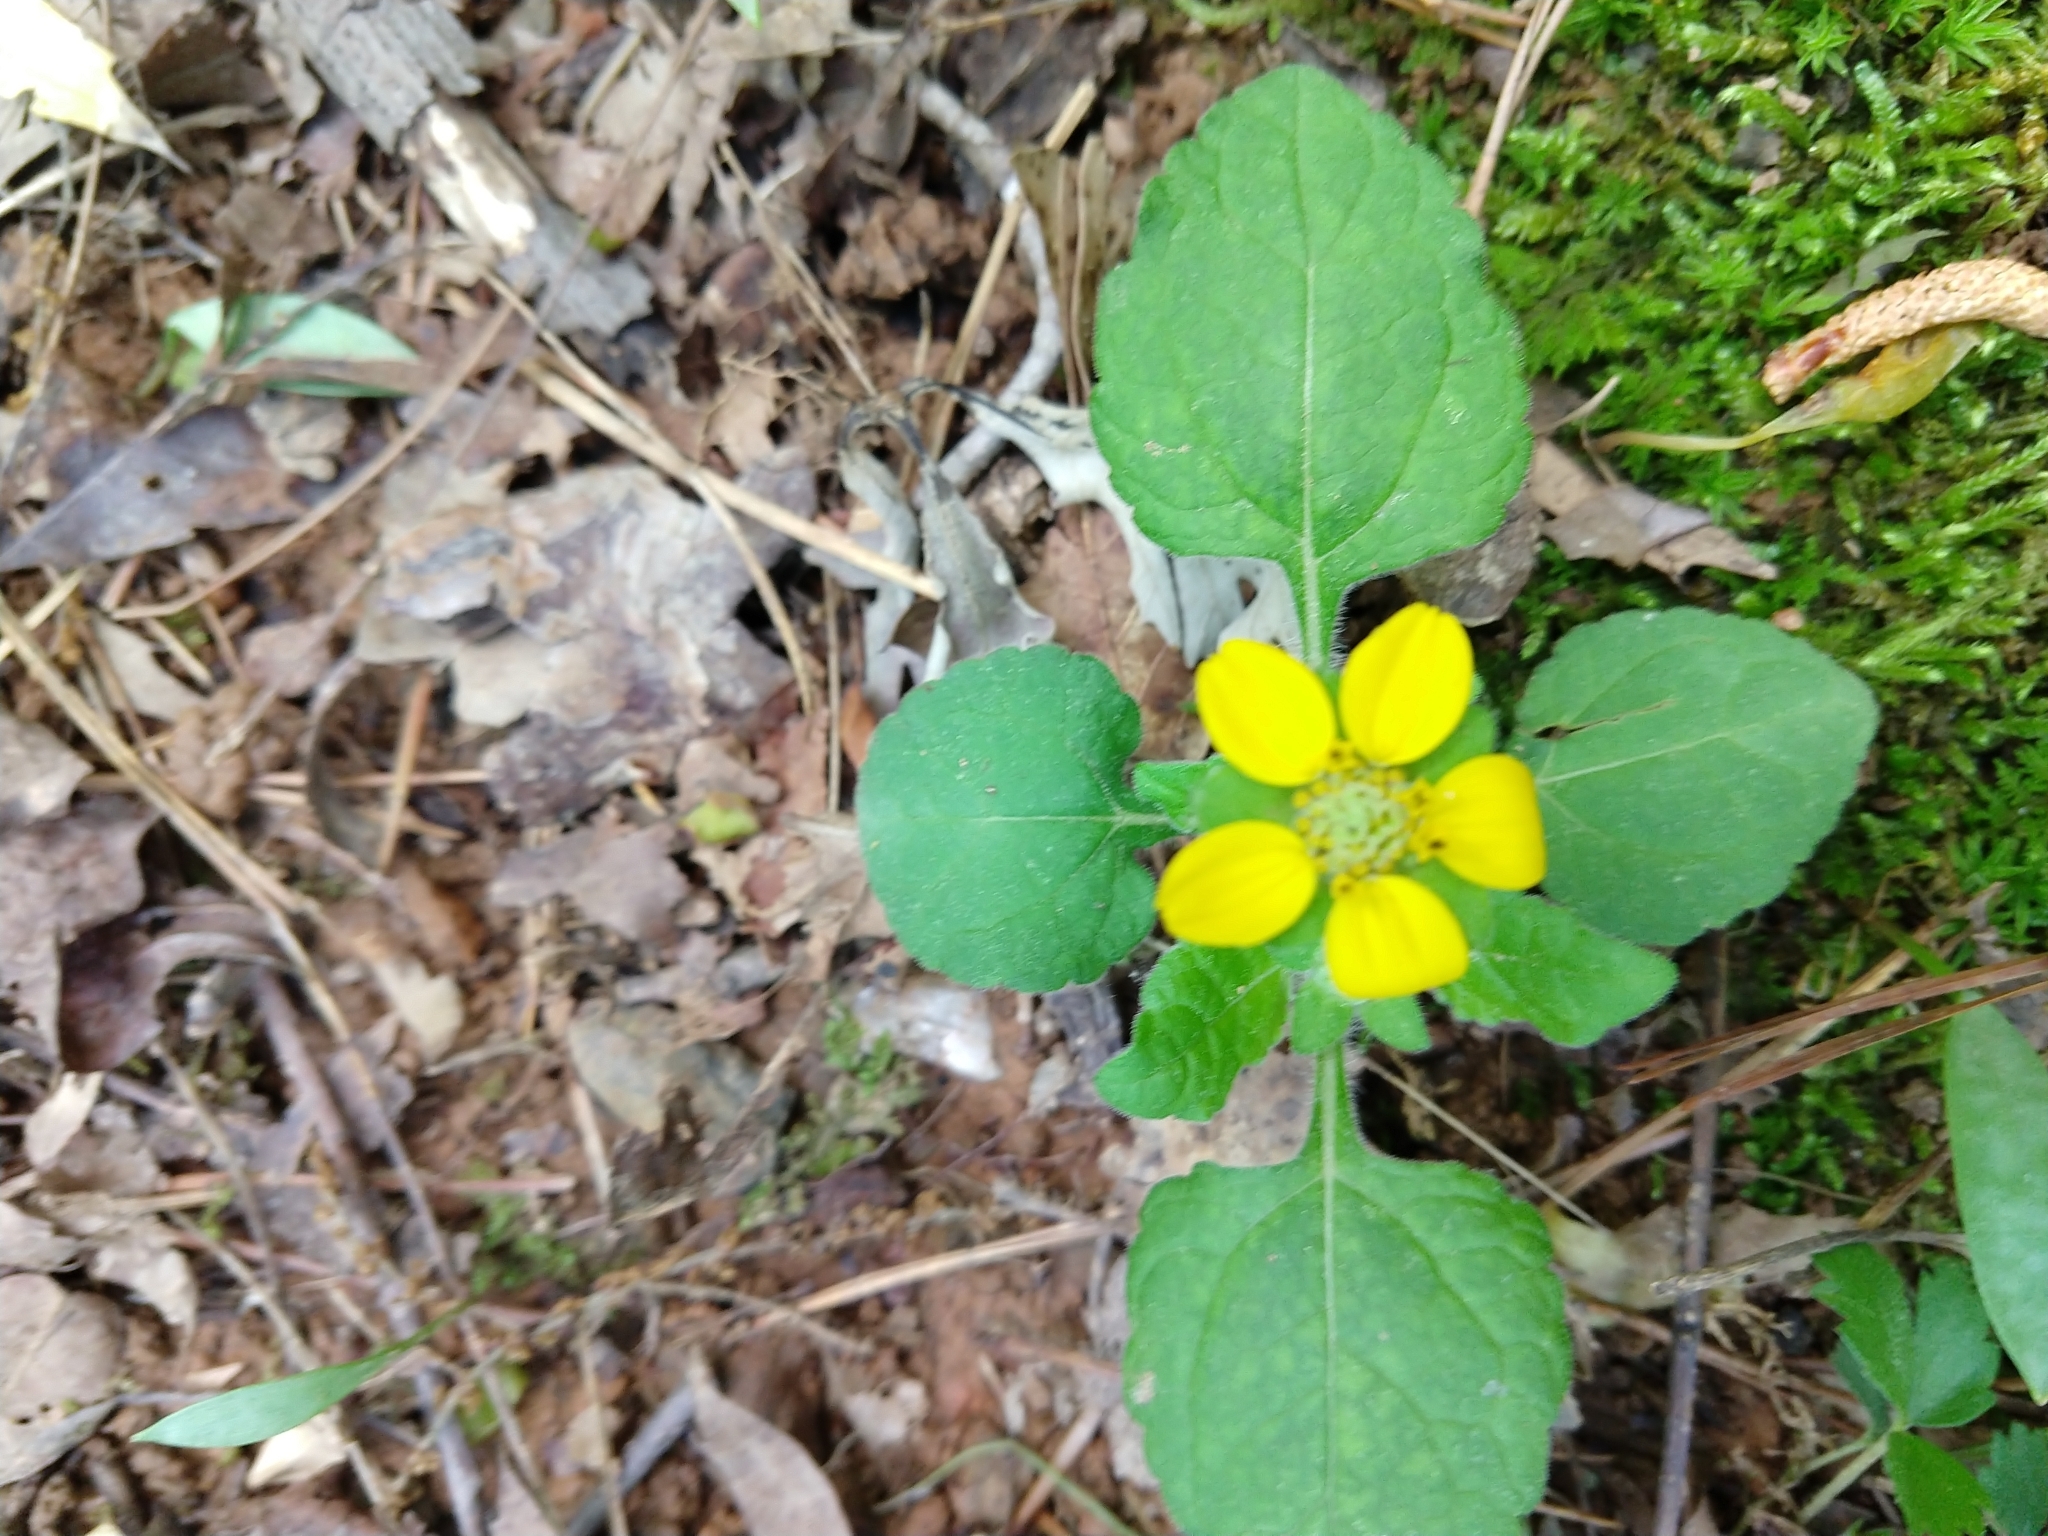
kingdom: Plantae
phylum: Tracheophyta
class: Magnoliopsida
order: Asterales
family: Asteraceae
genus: Chrysogonum
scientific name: Chrysogonum virginianum
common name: Golden-knee
